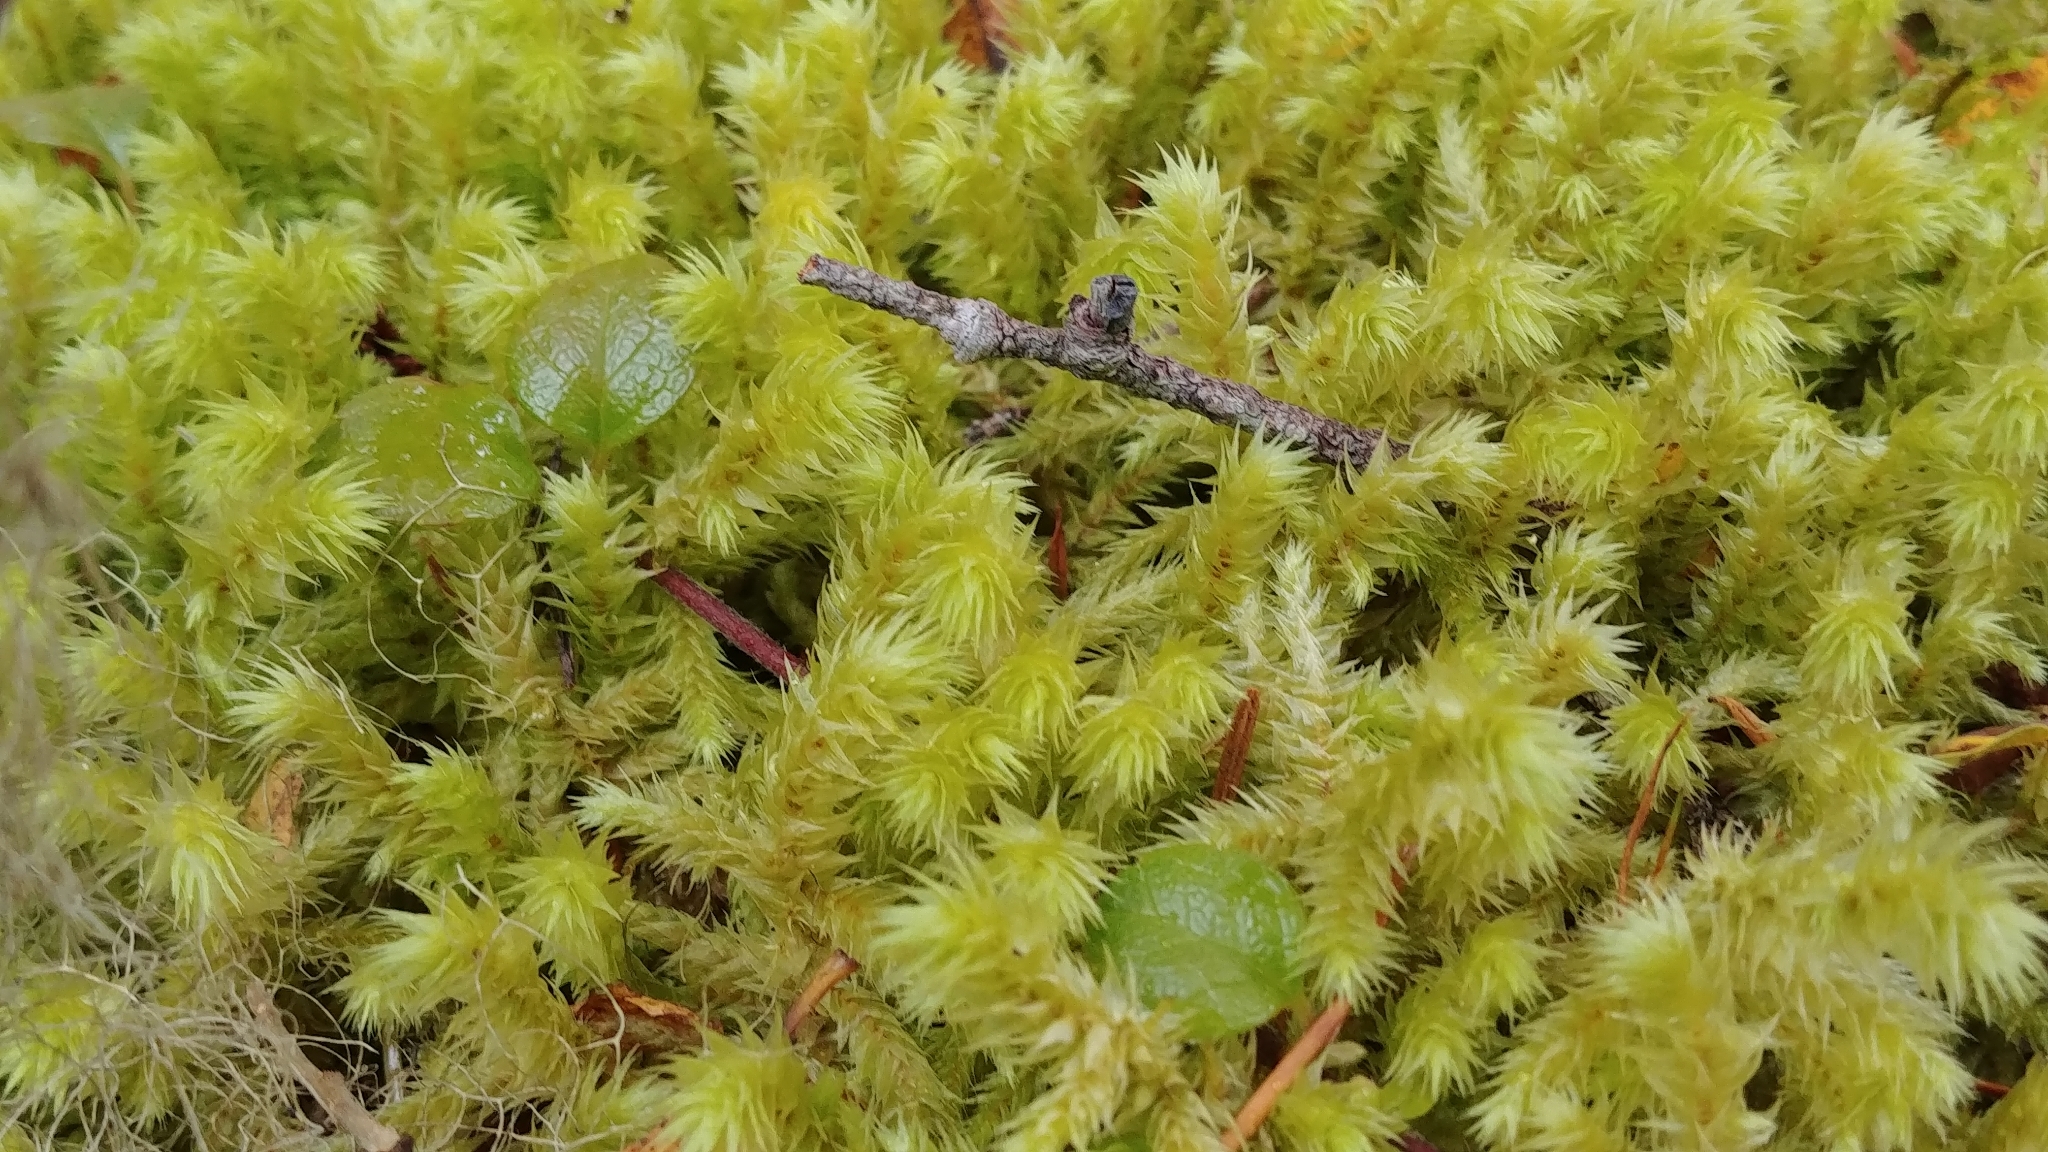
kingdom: Plantae
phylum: Bryophyta
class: Bryopsida
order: Hypnales
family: Hylocomiaceae
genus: Rhytidiopsis
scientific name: Rhytidiopsis robusta
